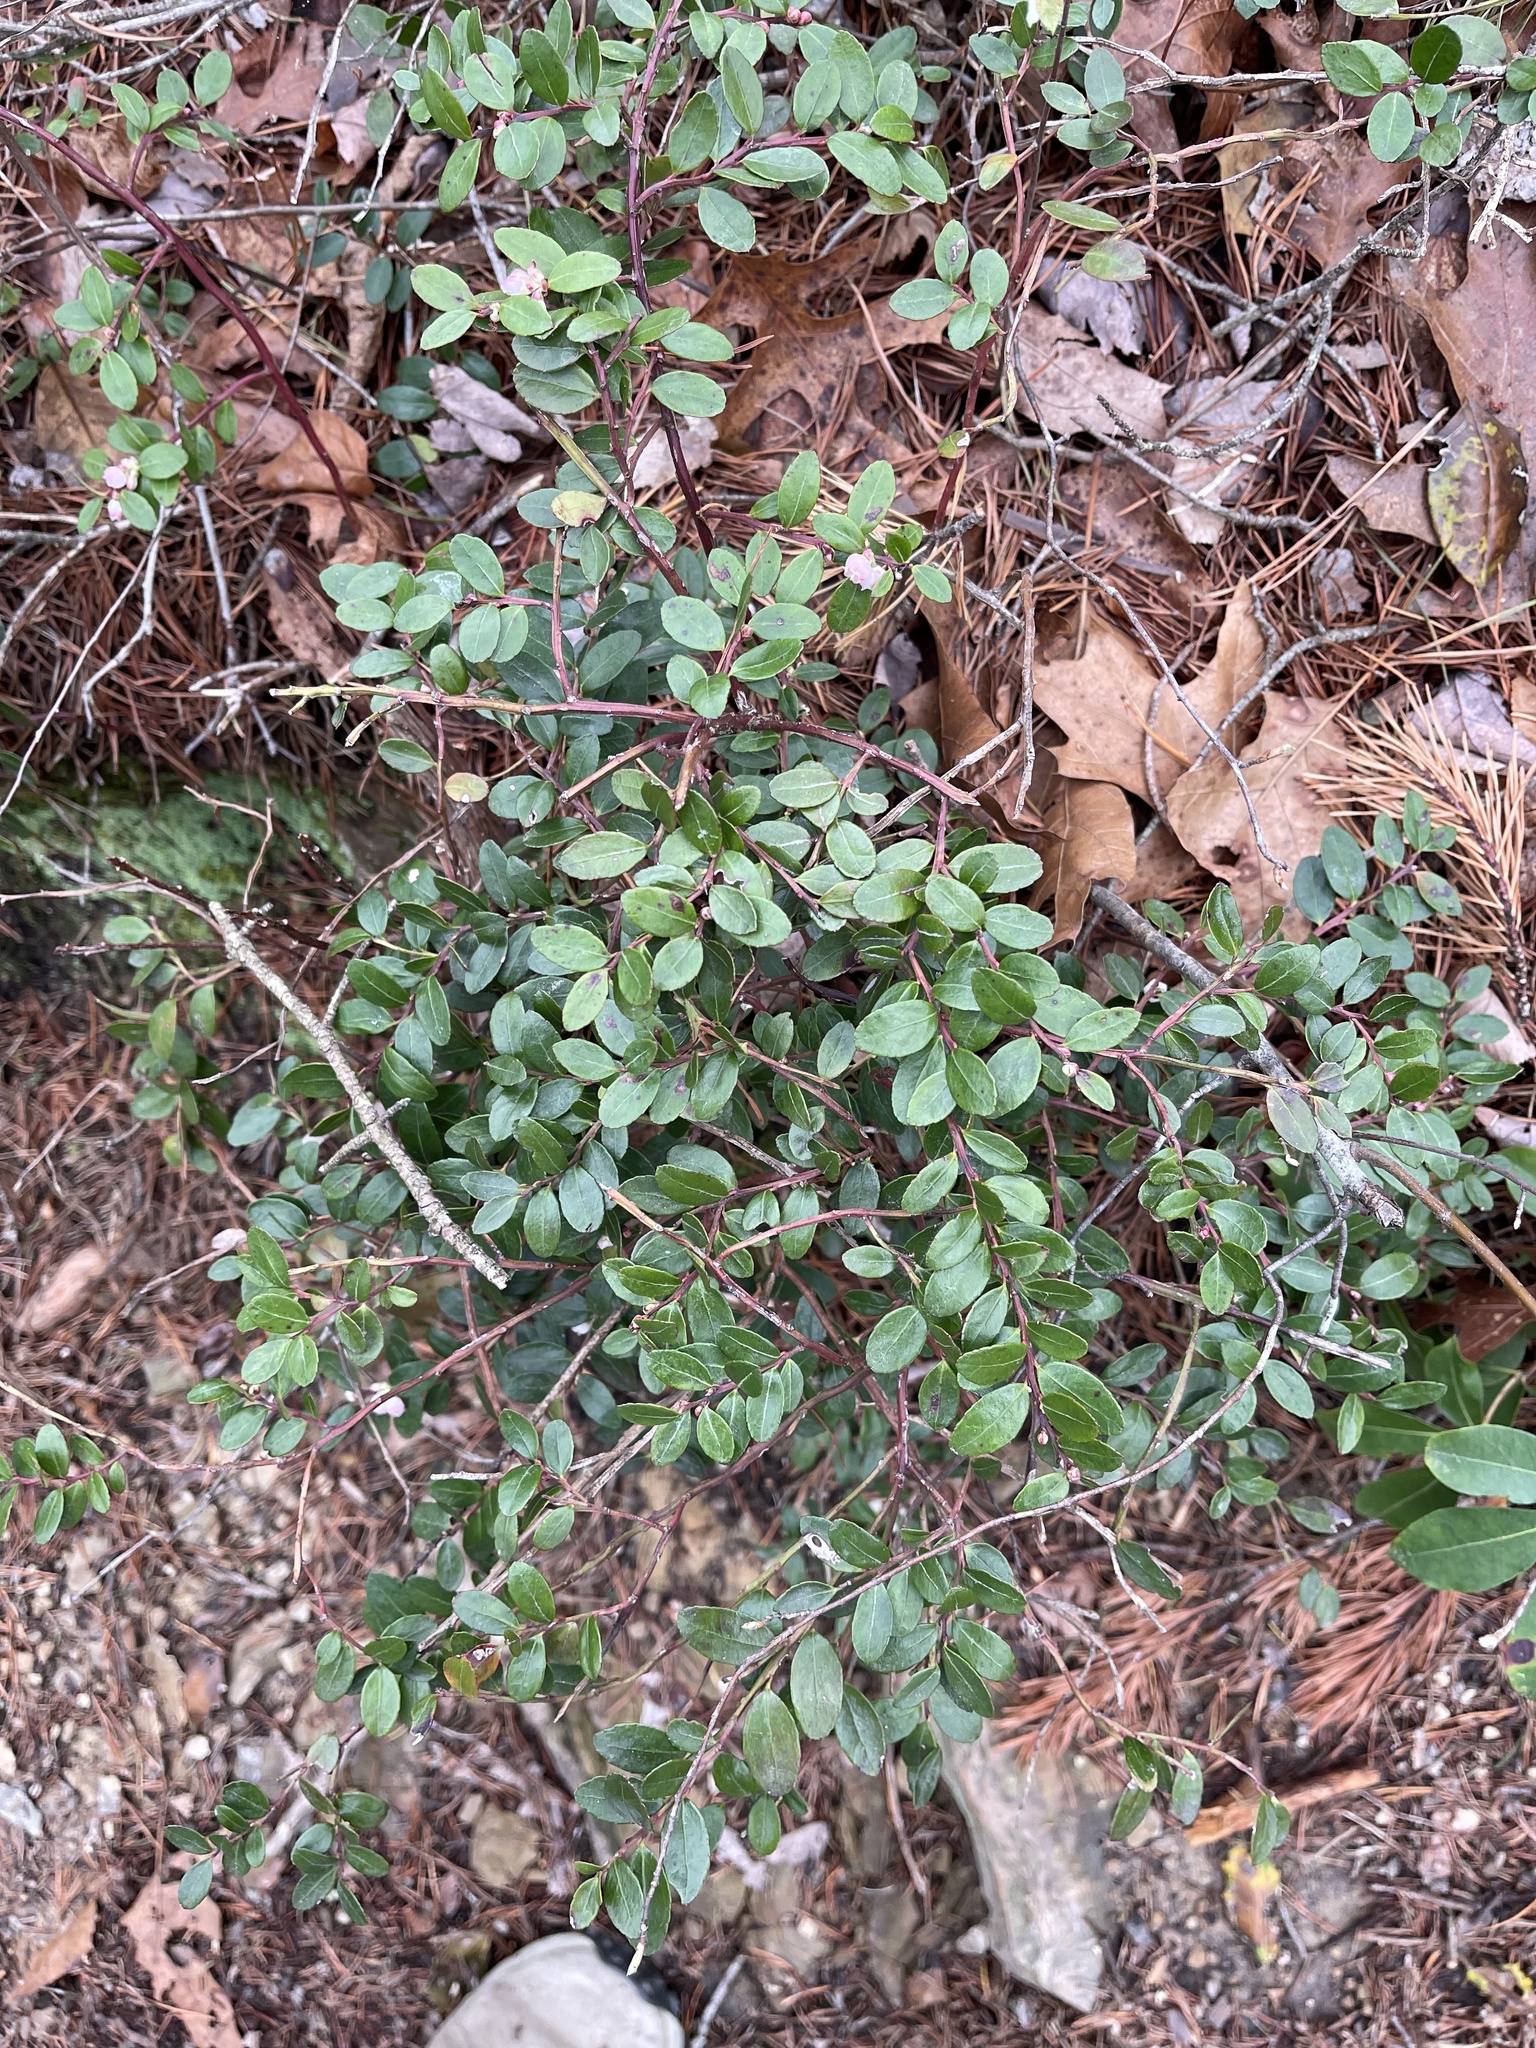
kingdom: Plantae
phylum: Tracheophyta
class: Magnoliopsida
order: Ericales
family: Ericaceae
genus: Gaylussacia
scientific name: Gaylussacia brachycera
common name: Box huckleberry
